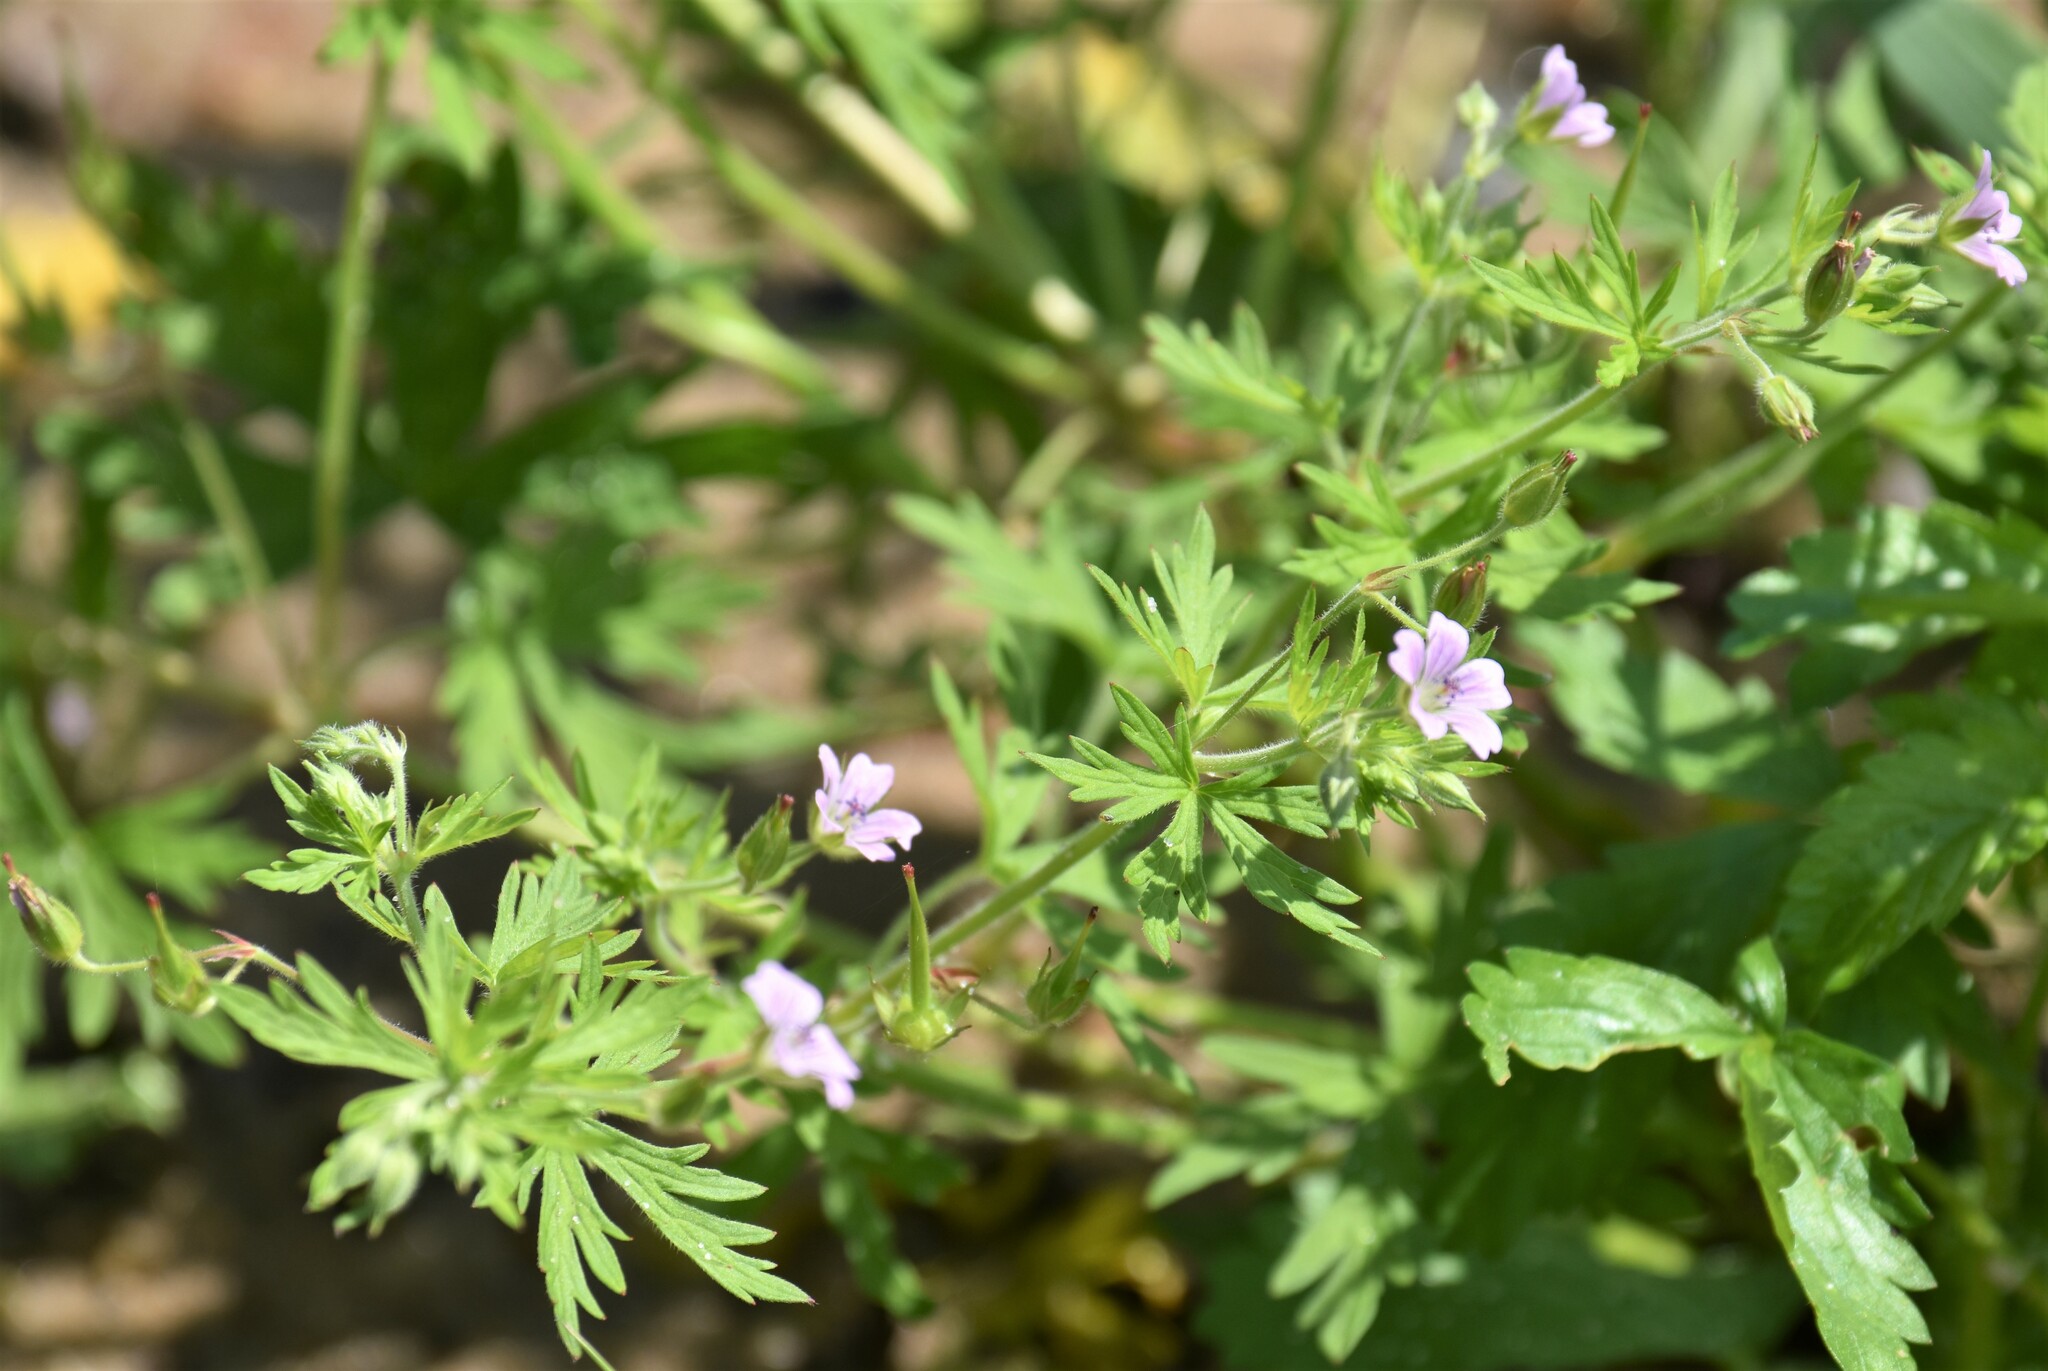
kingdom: Plantae
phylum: Tracheophyta
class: Magnoliopsida
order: Geraniales
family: Geraniaceae
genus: Geranium
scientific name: Geranium bicknellii
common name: Bicknell's cranesbill
